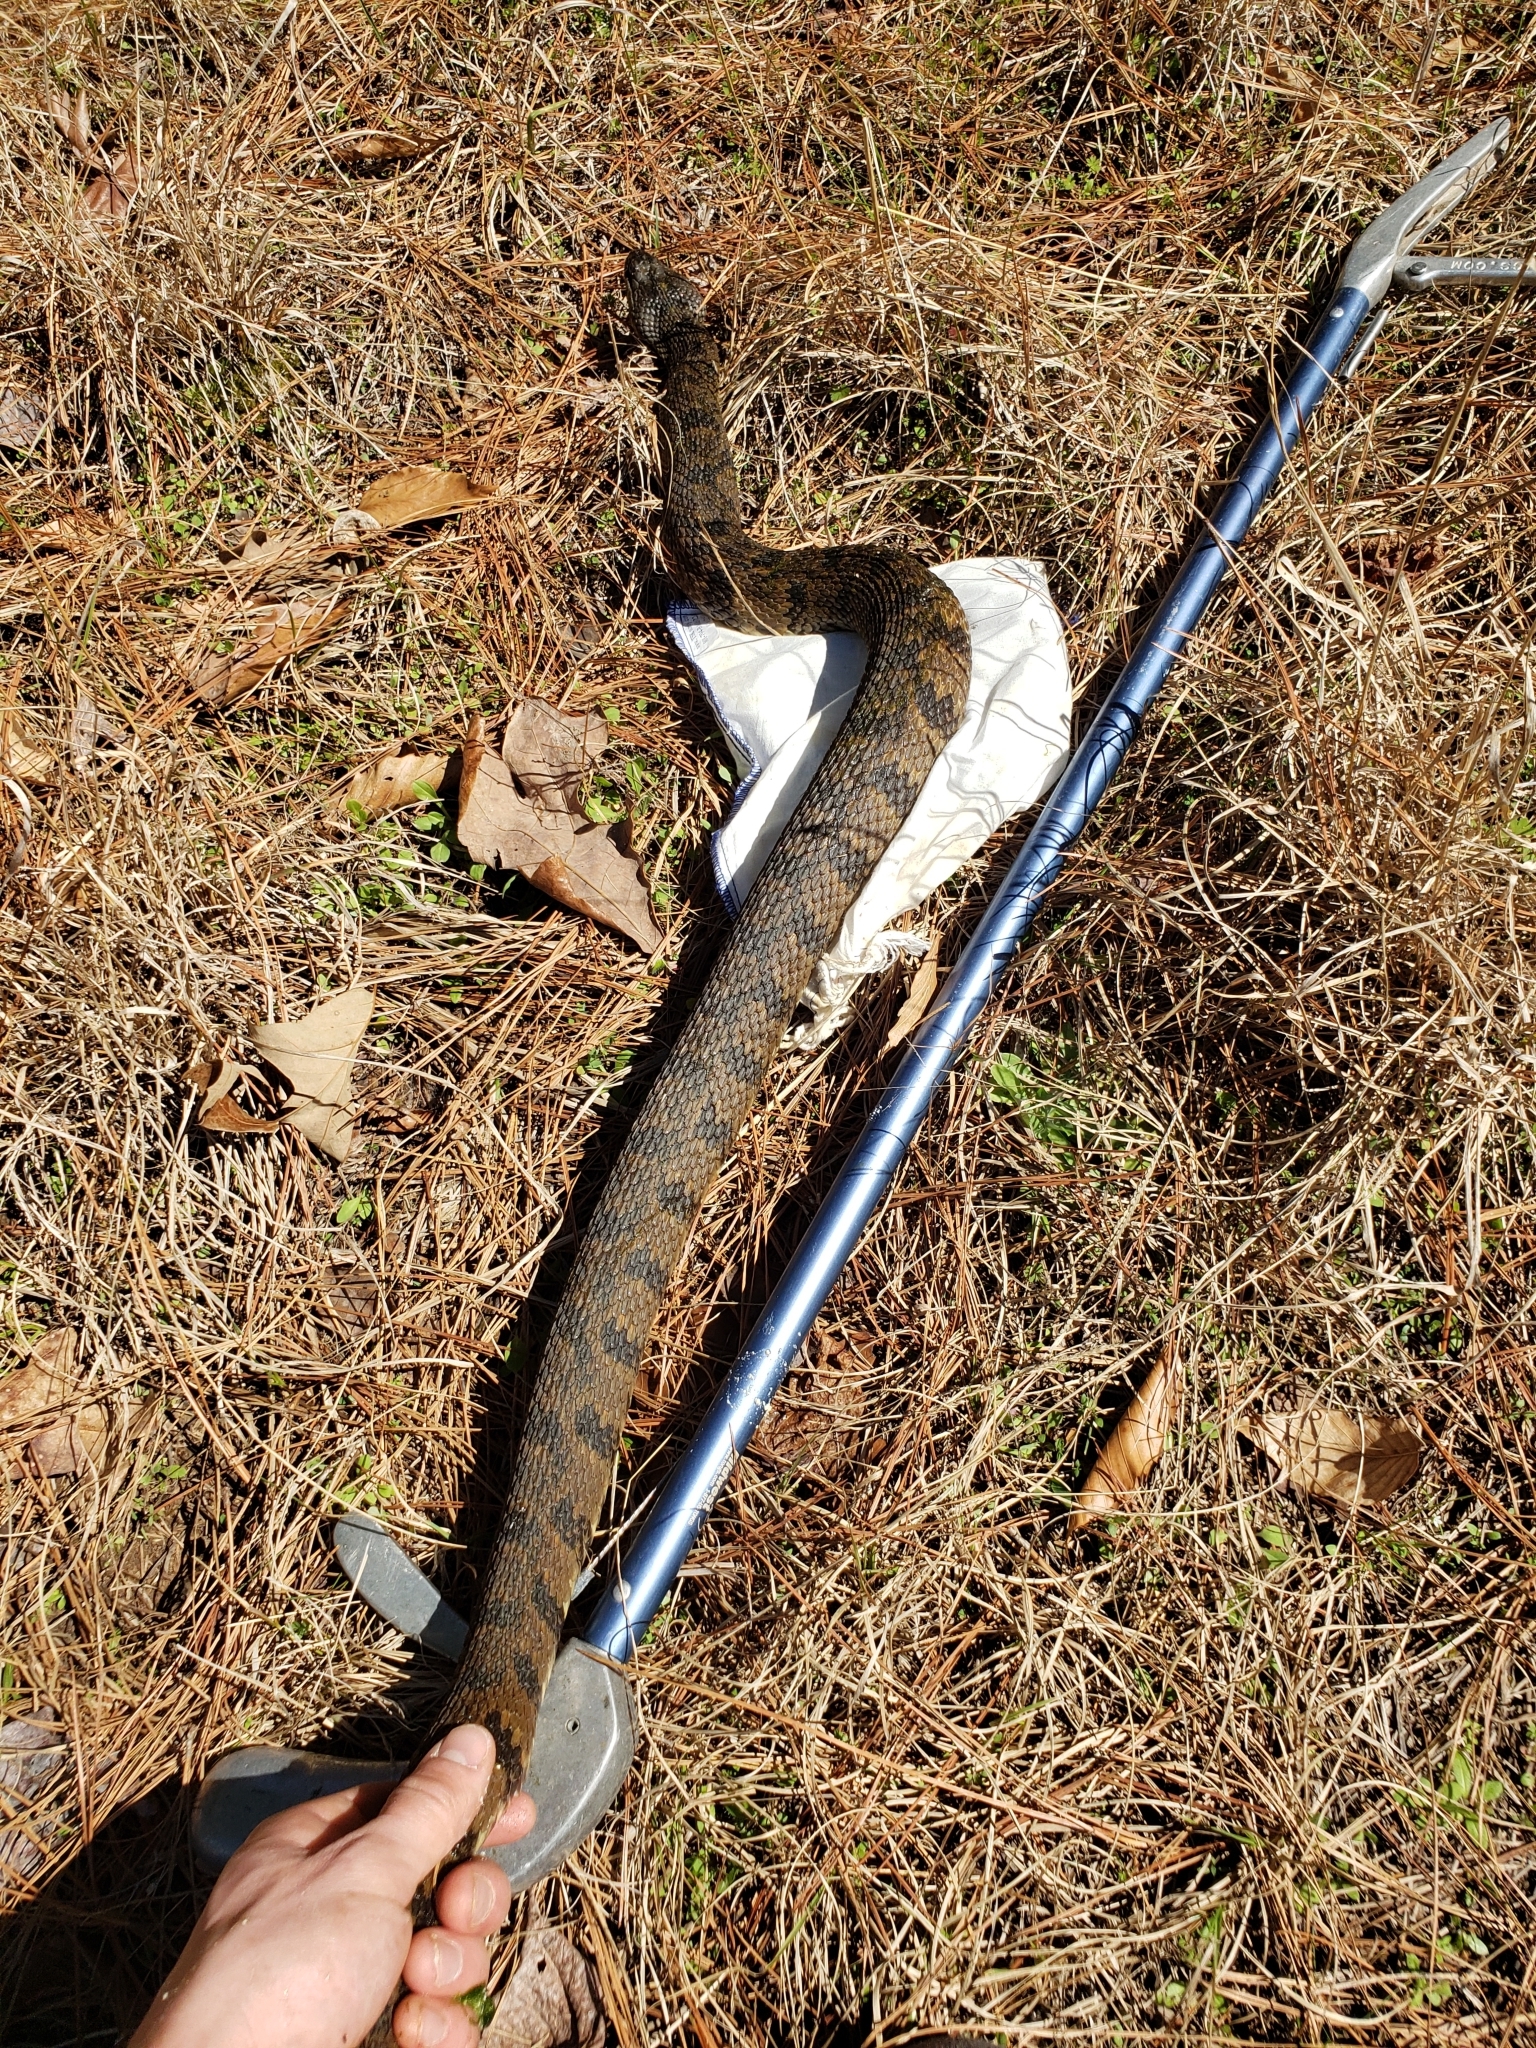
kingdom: Animalia
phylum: Chordata
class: Squamata
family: Colubridae
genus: Nerodia
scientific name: Nerodia rhombifer
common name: Diamondback water snake
